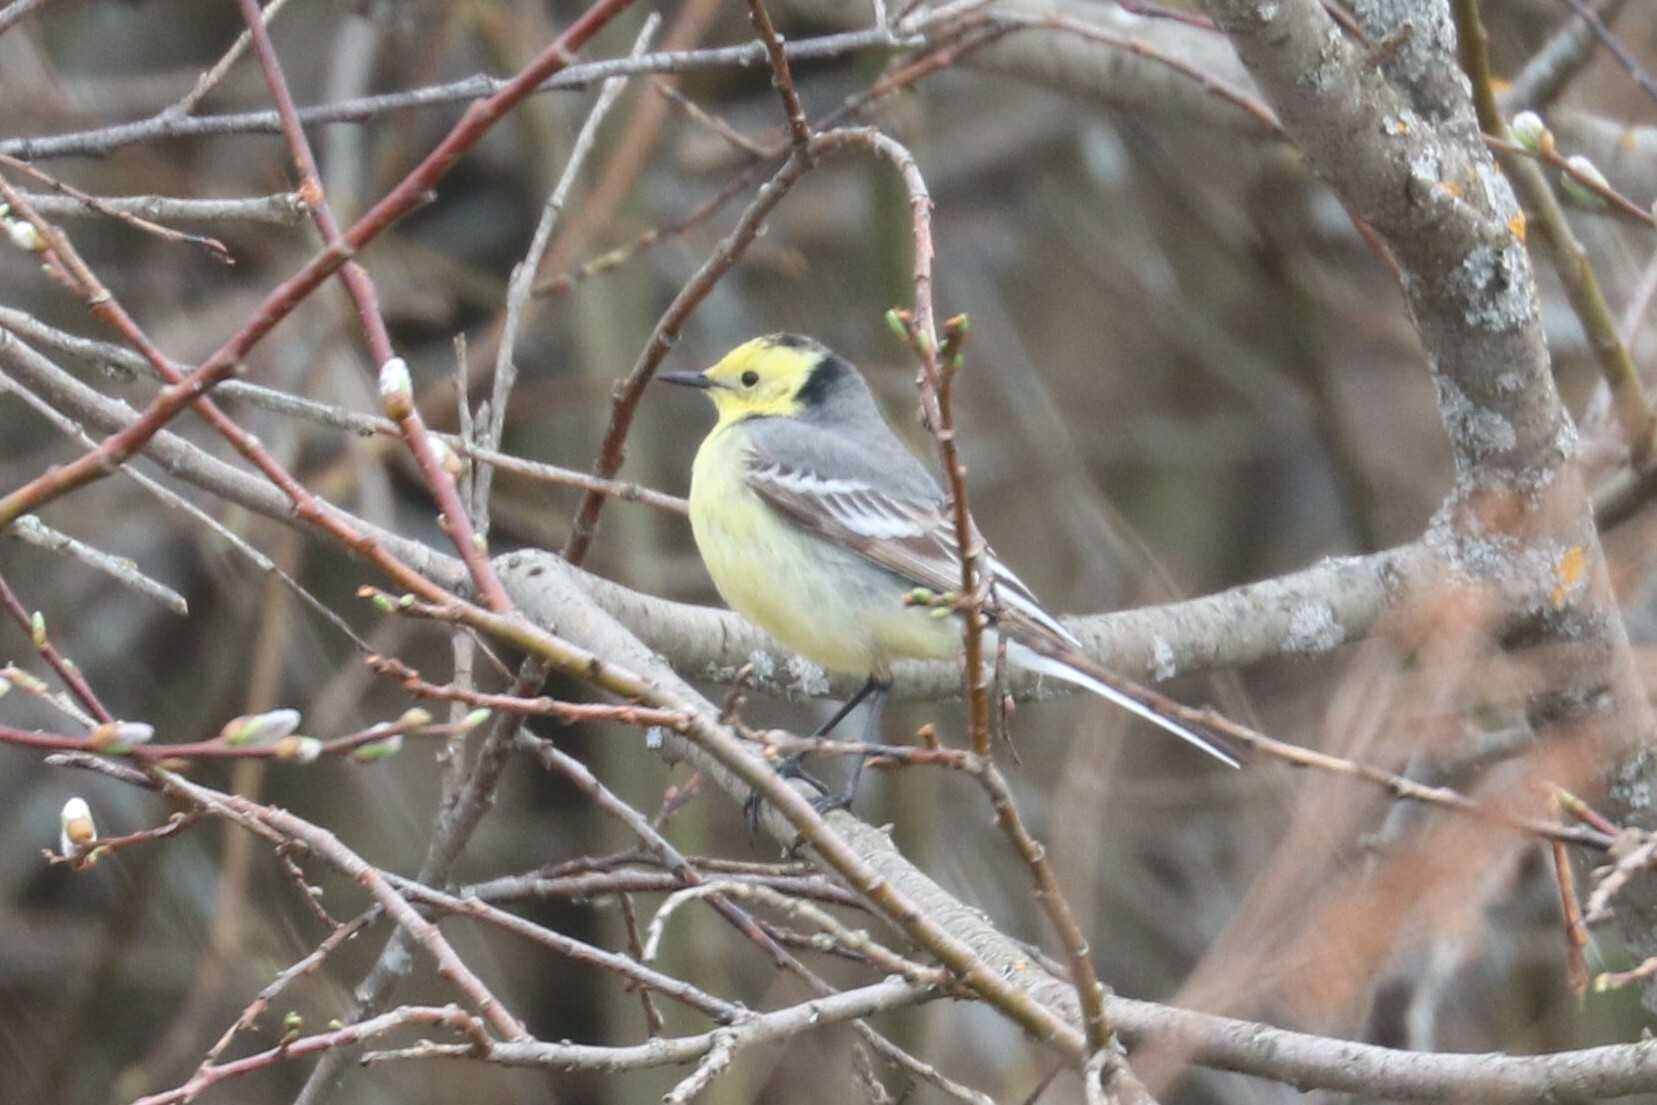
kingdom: Animalia
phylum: Chordata
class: Aves
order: Passeriformes
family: Motacillidae
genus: Motacilla
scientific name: Motacilla citreola
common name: Citrine wagtail
